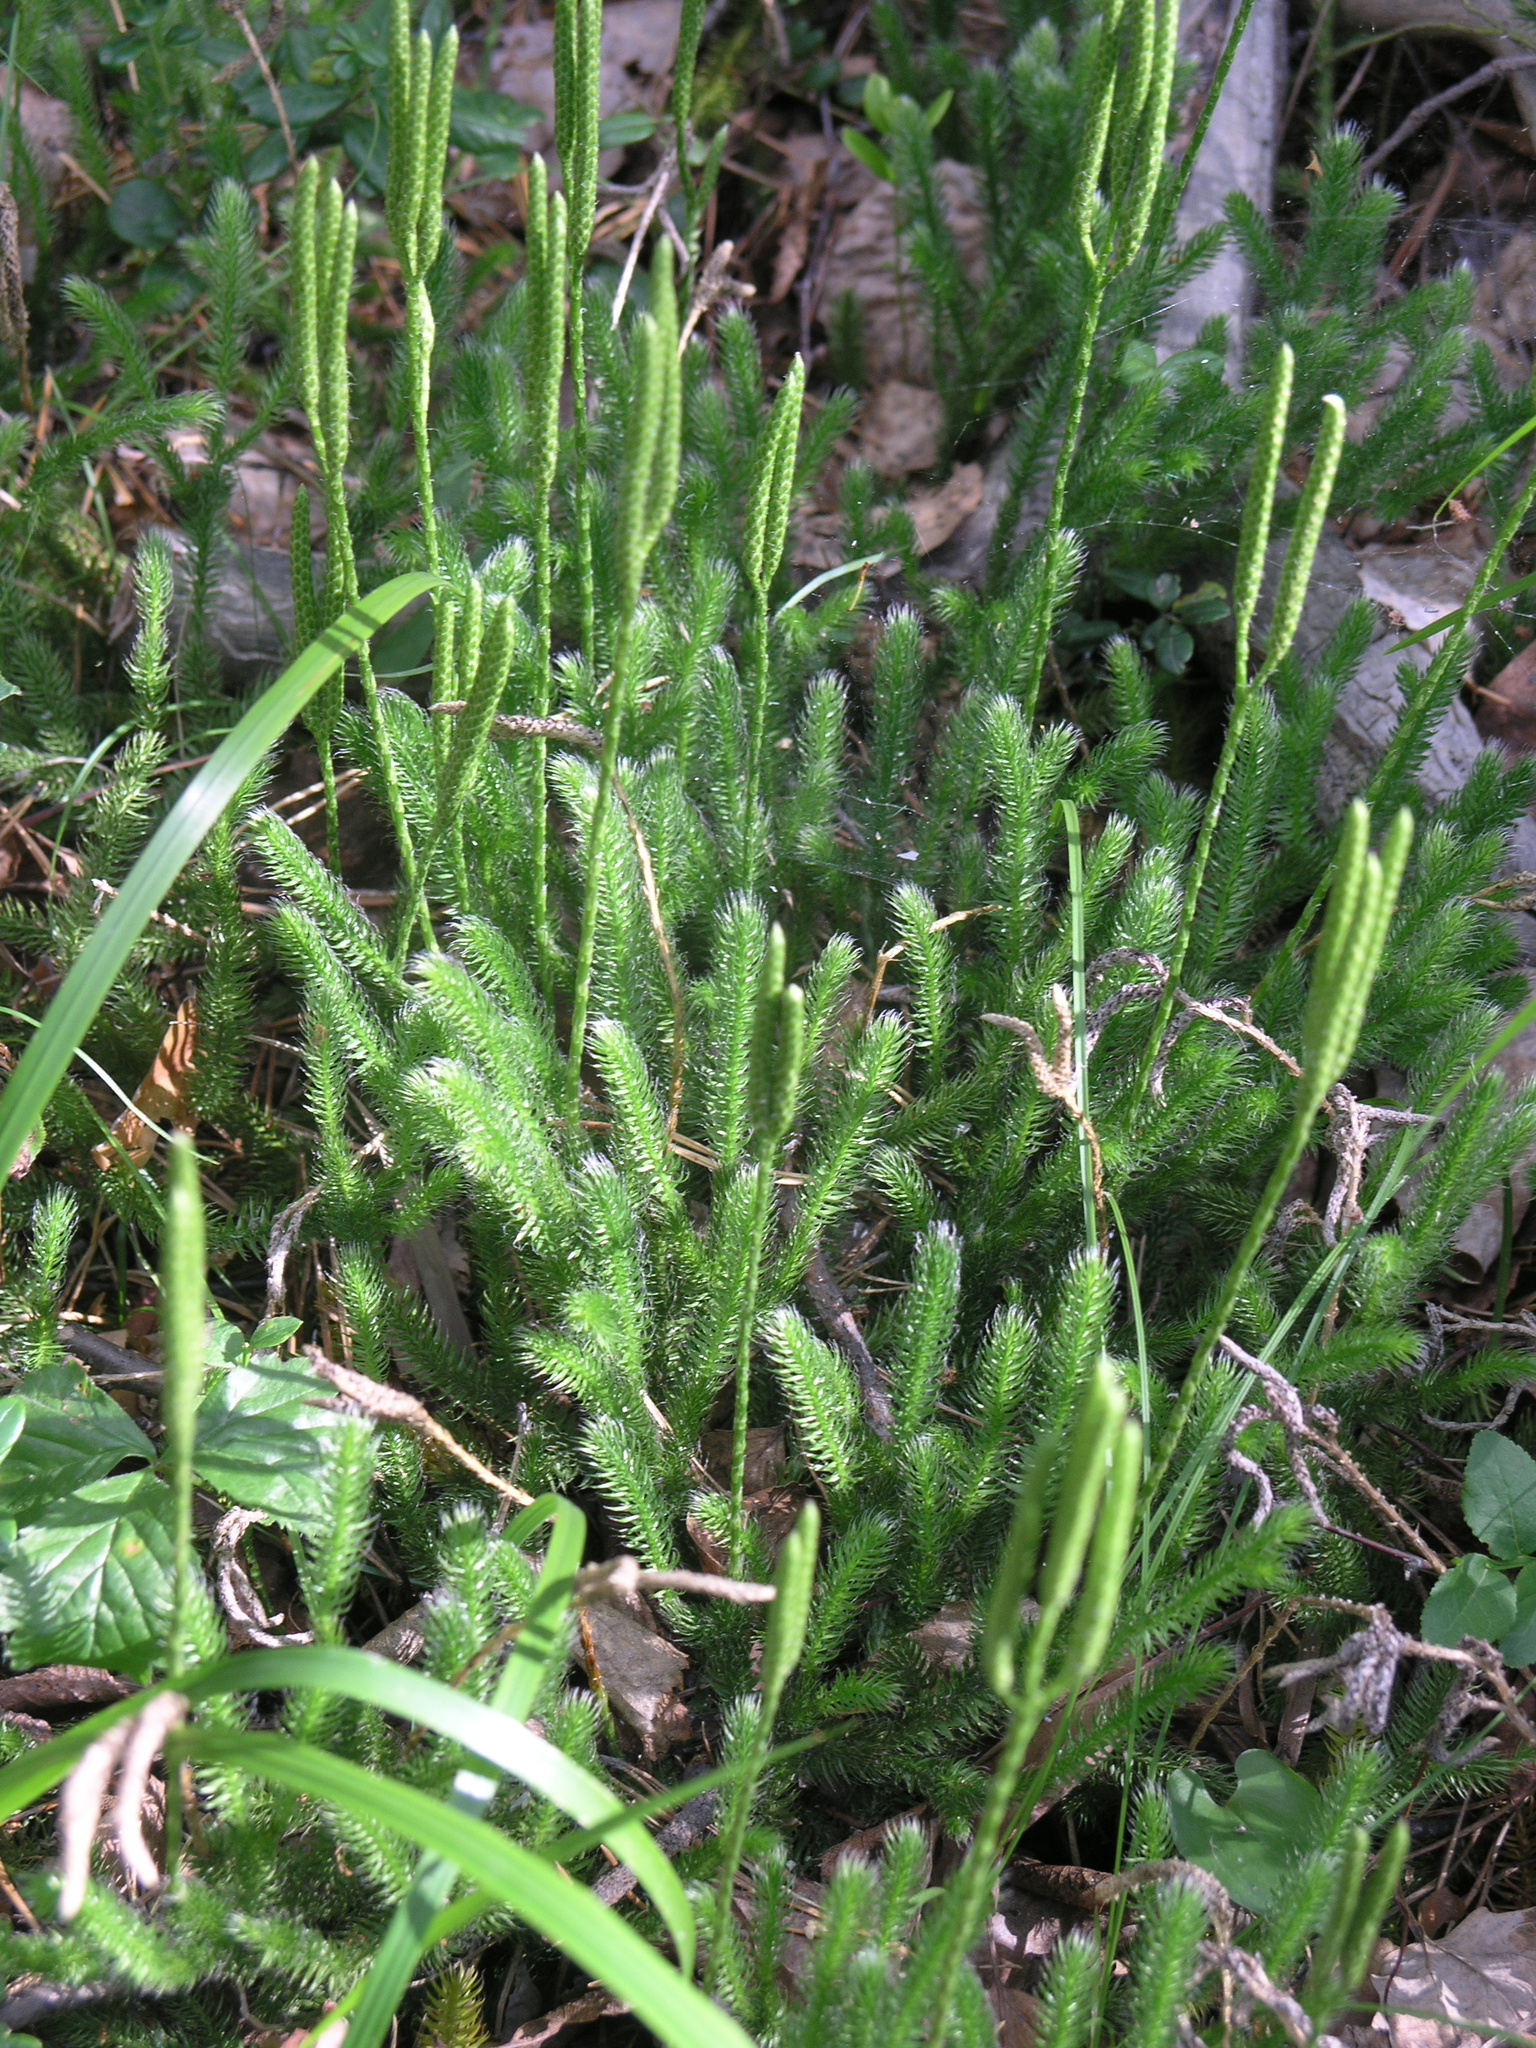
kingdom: Plantae
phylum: Tracheophyta
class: Lycopodiopsida
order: Lycopodiales
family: Lycopodiaceae
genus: Lycopodium
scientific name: Lycopodium clavatum
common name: Stag's-horn clubmoss
